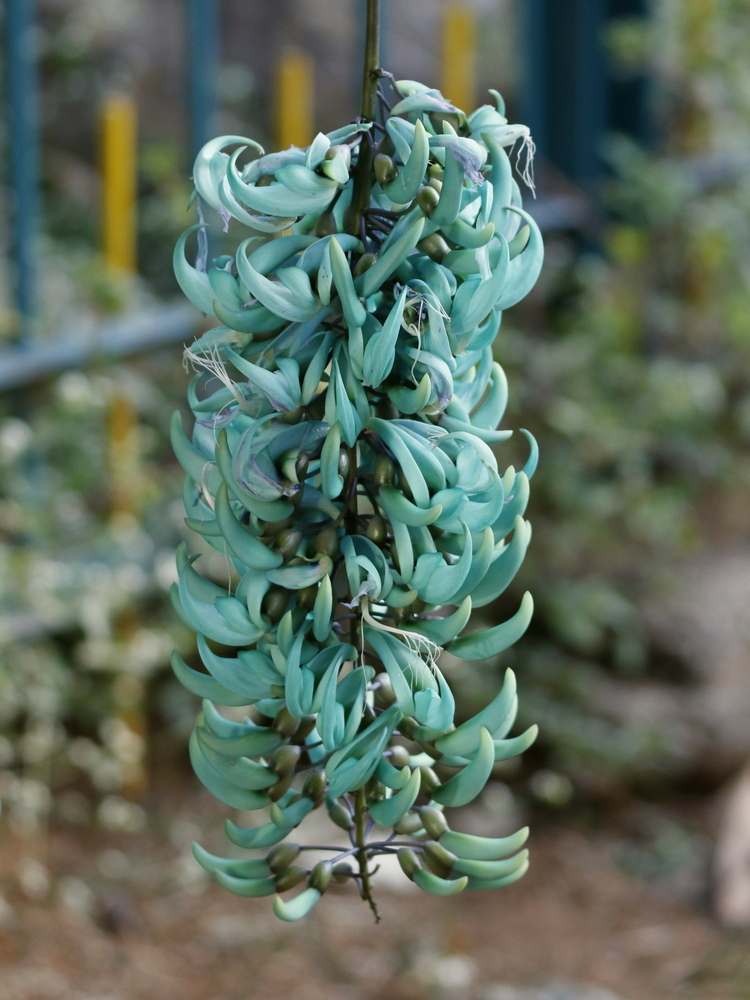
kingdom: Plantae
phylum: Tracheophyta
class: Magnoliopsida
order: Fabales
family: Fabaceae
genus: Strongylodon
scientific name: Strongylodon macrobotrys
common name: Jadevine
